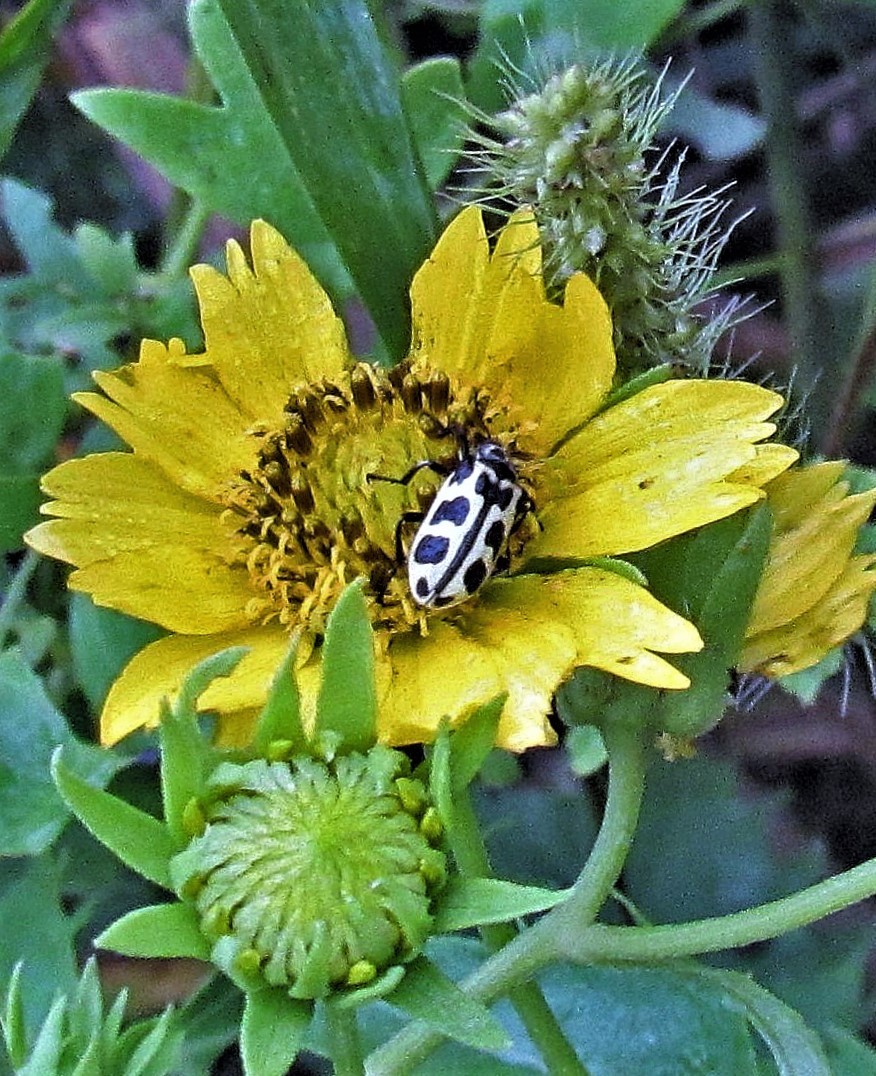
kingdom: Animalia
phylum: Arthropoda
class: Insecta
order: Coleoptera
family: Melyridae
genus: Astylus
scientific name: Astylus atromaculatus
